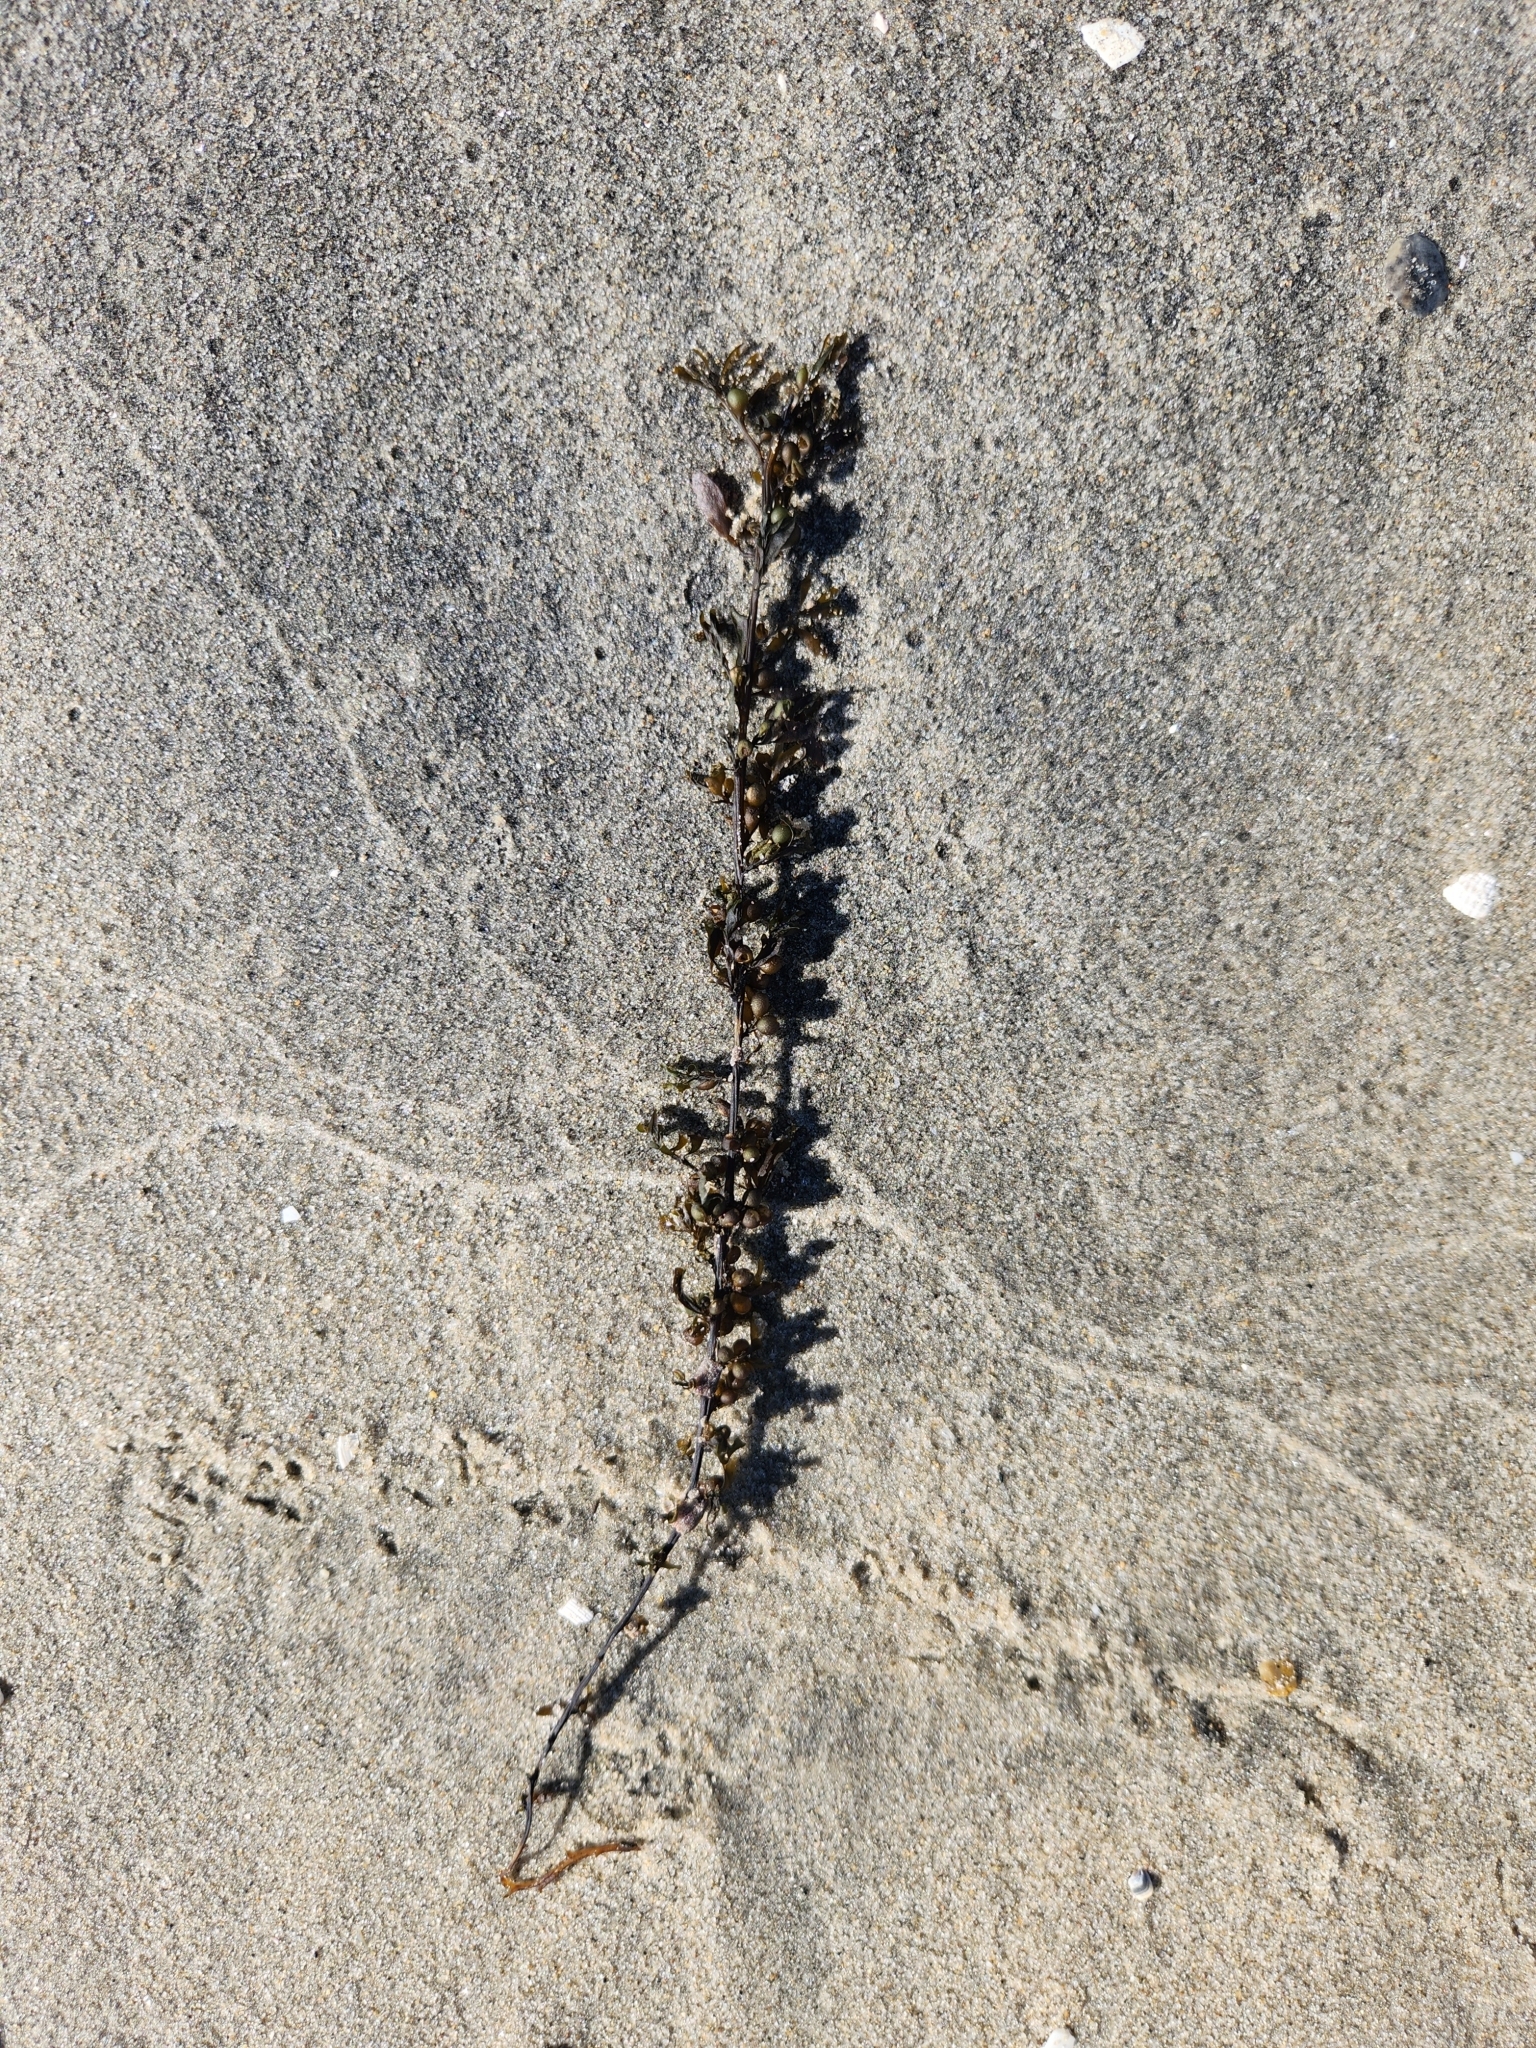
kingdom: Chromista
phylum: Ochrophyta
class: Phaeophyceae
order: Fucales
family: Sargassaceae
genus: Sargassum
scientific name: Sargassum muticum
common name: Japweed
